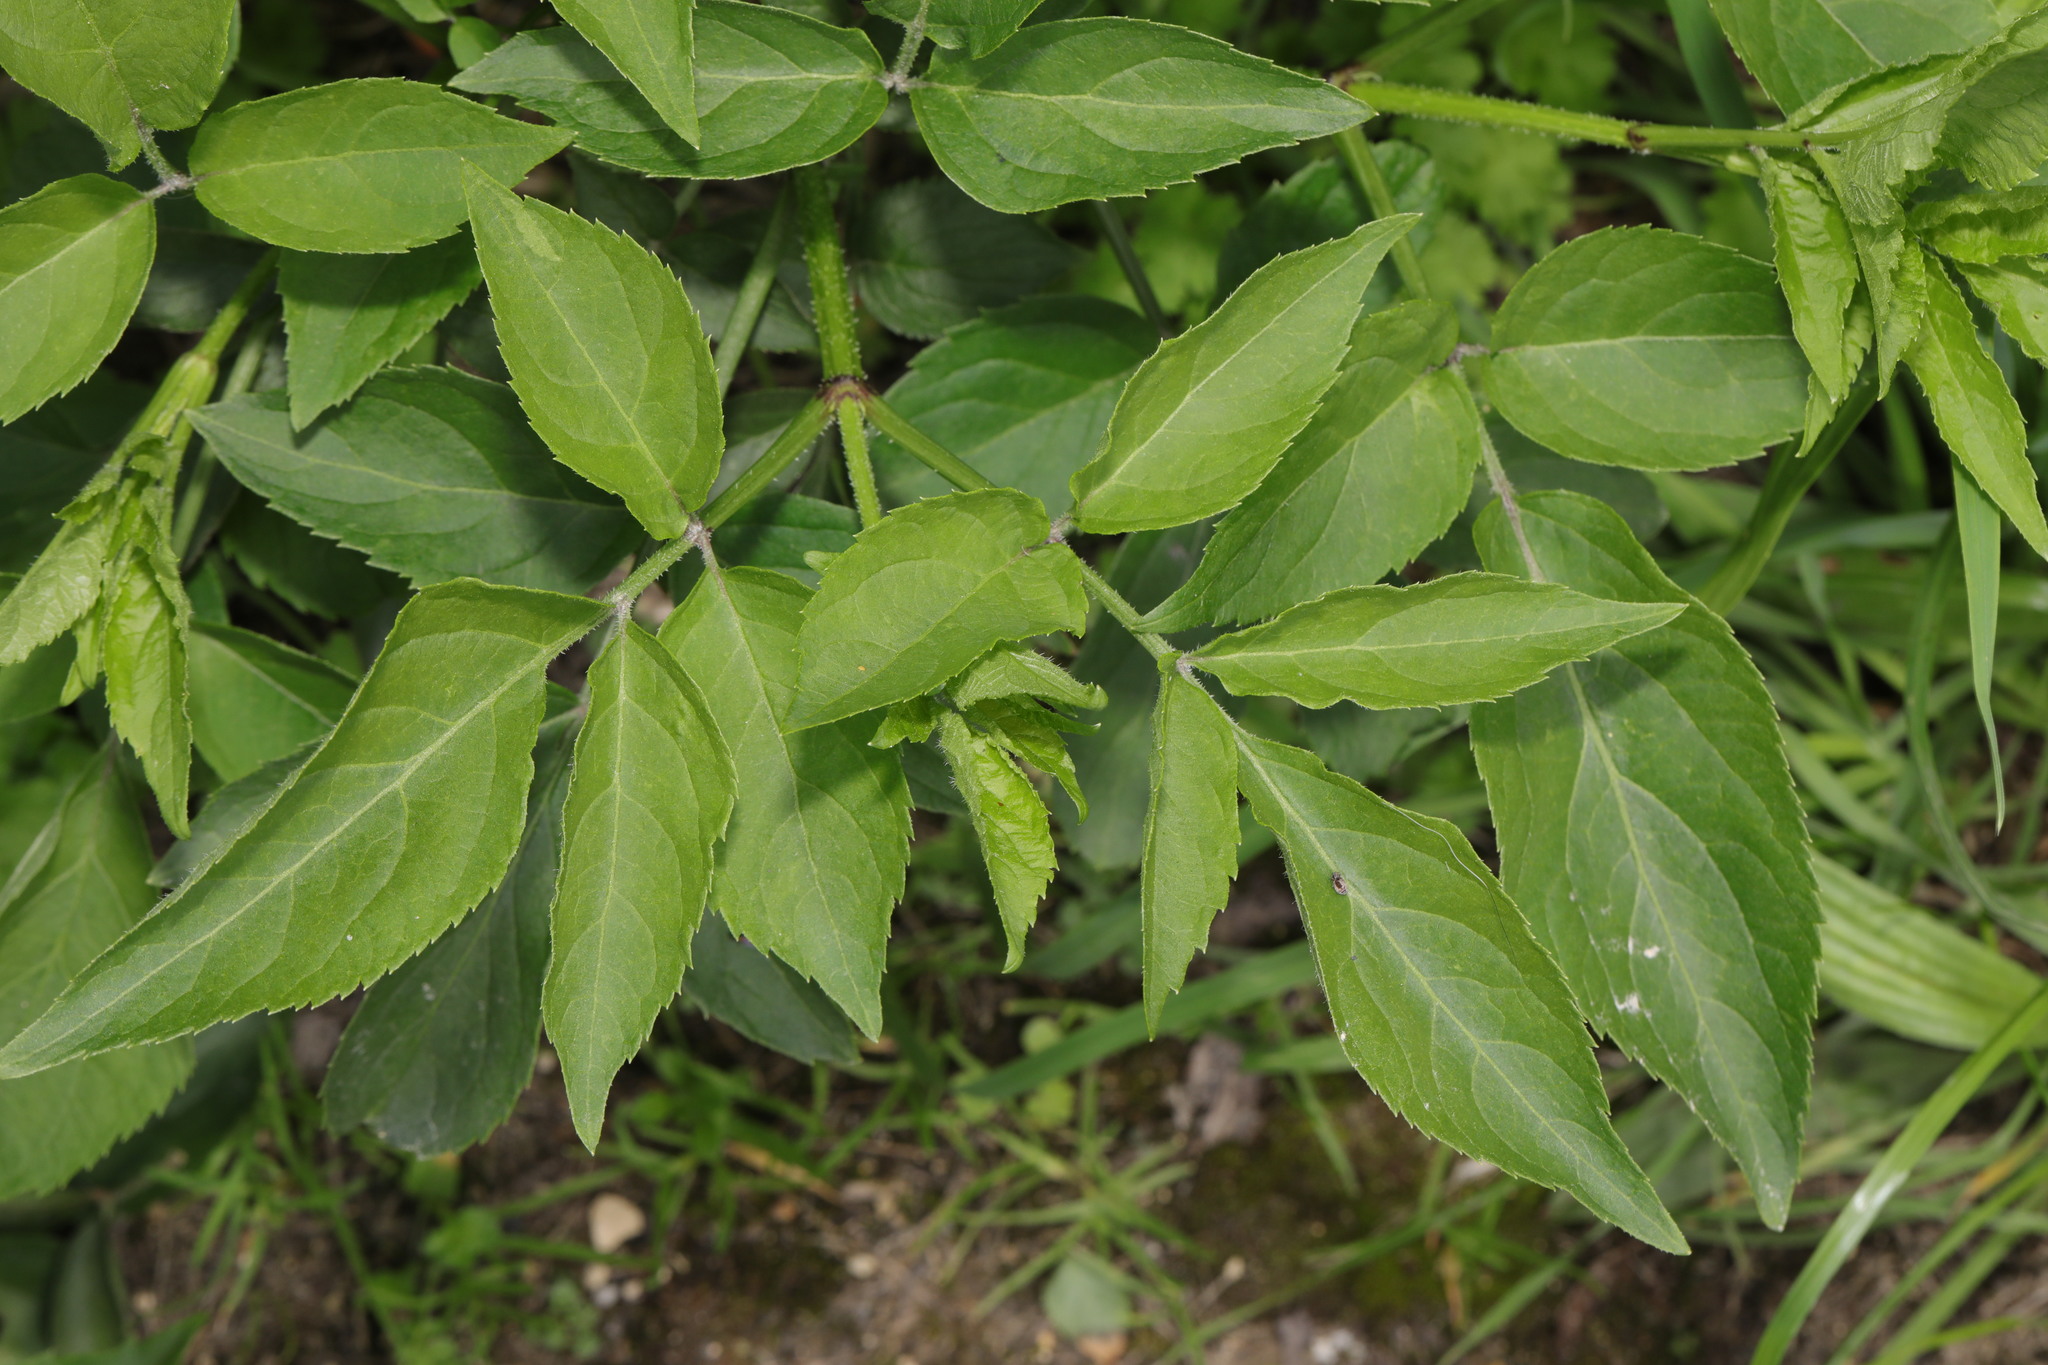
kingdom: Plantae
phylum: Tracheophyta
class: Magnoliopsida
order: Dipsacales
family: Viburnaceae
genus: Sambucus
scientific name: Sambucus nigra
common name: Elder
